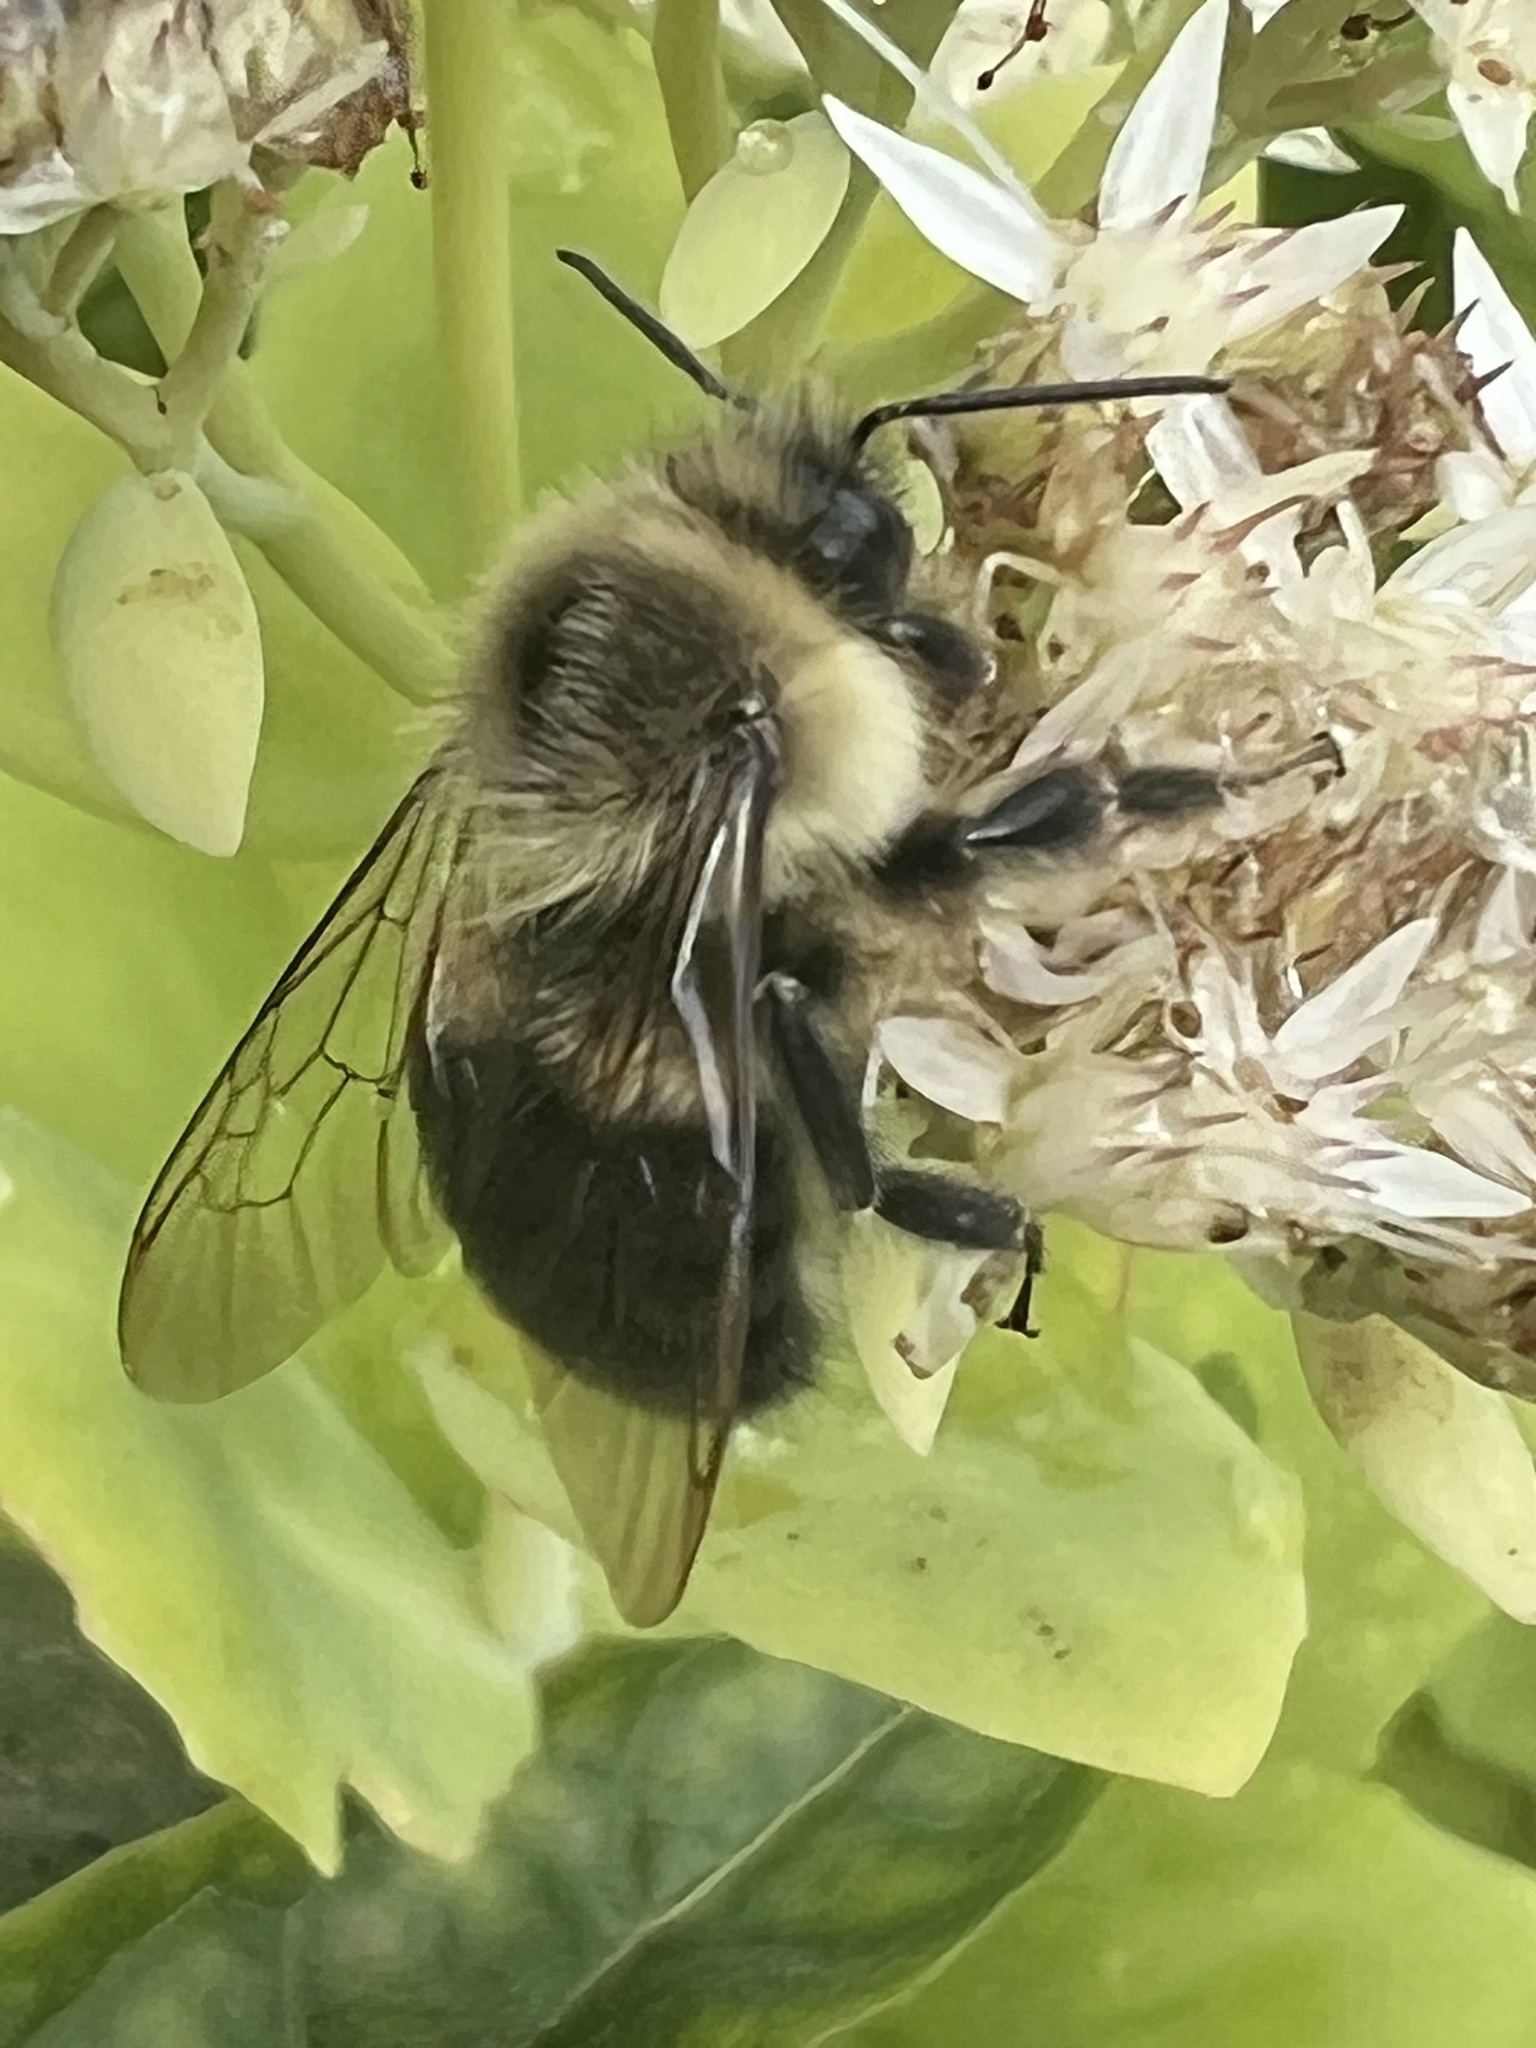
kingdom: Animalia
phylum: Arthropoda
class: Insecta
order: Hymenoptera
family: Apidae
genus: Bombus
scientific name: Bombus impatiens
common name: Common eastern bumble bee
